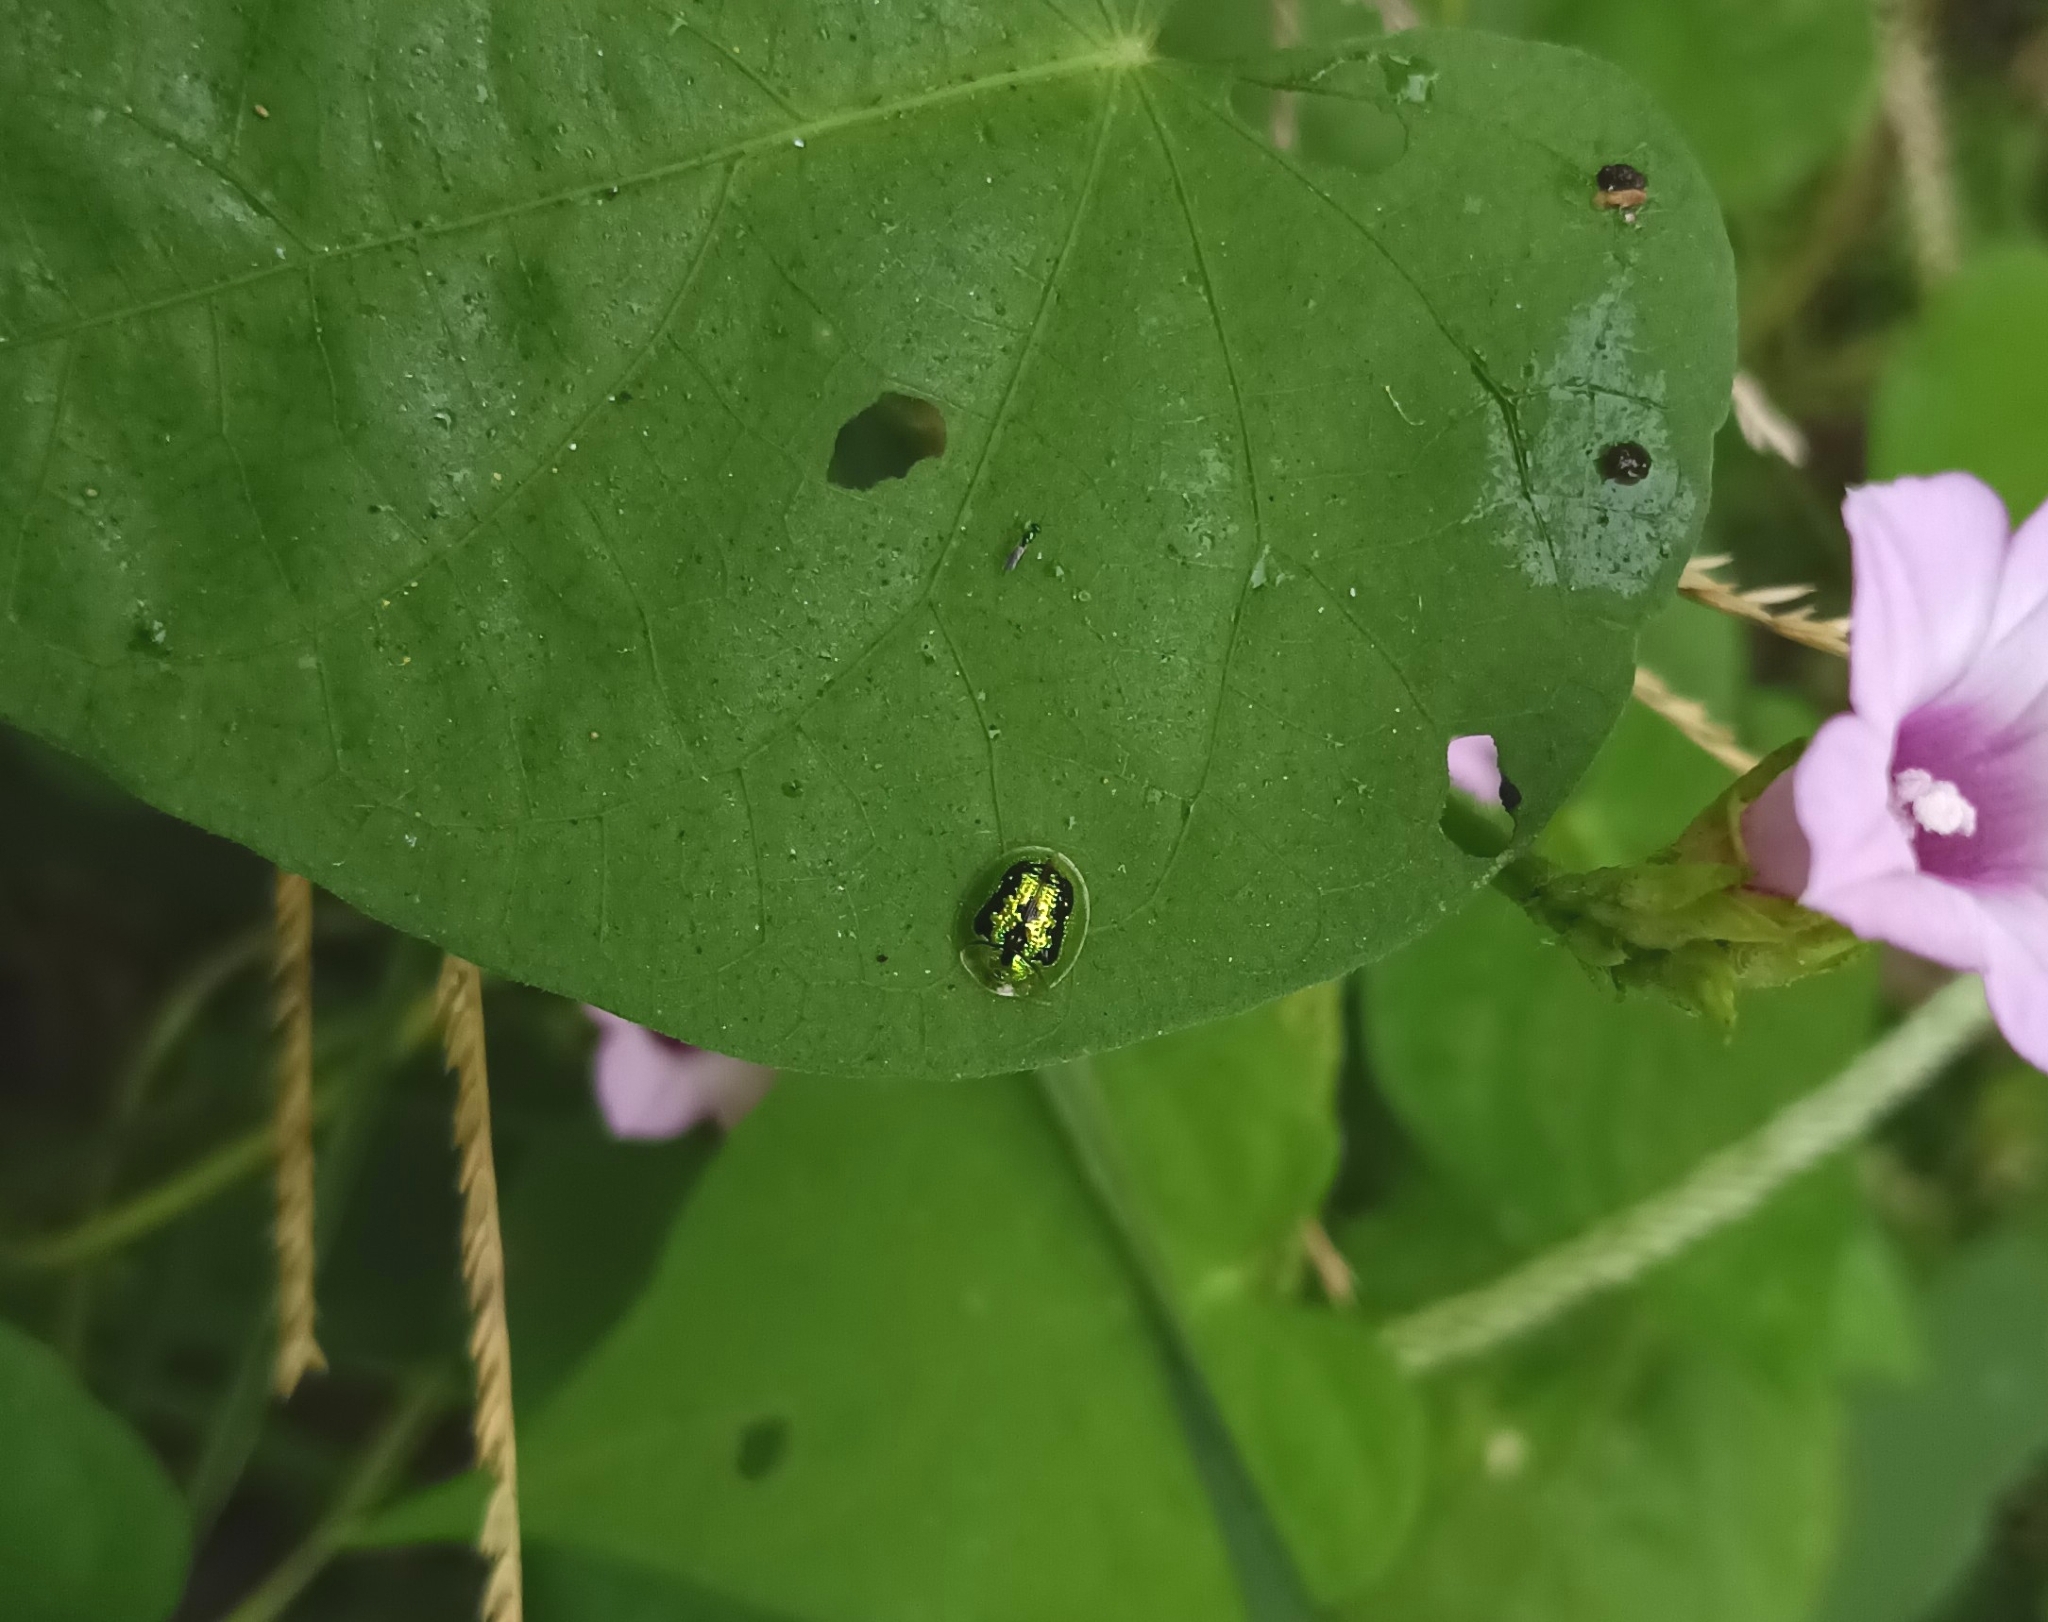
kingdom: Animalia
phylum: Arthropoda
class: Insecta
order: Coleoptera
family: Chrysomelidae
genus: Cassida
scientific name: Cassida circumdata
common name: Tortoise beetle
